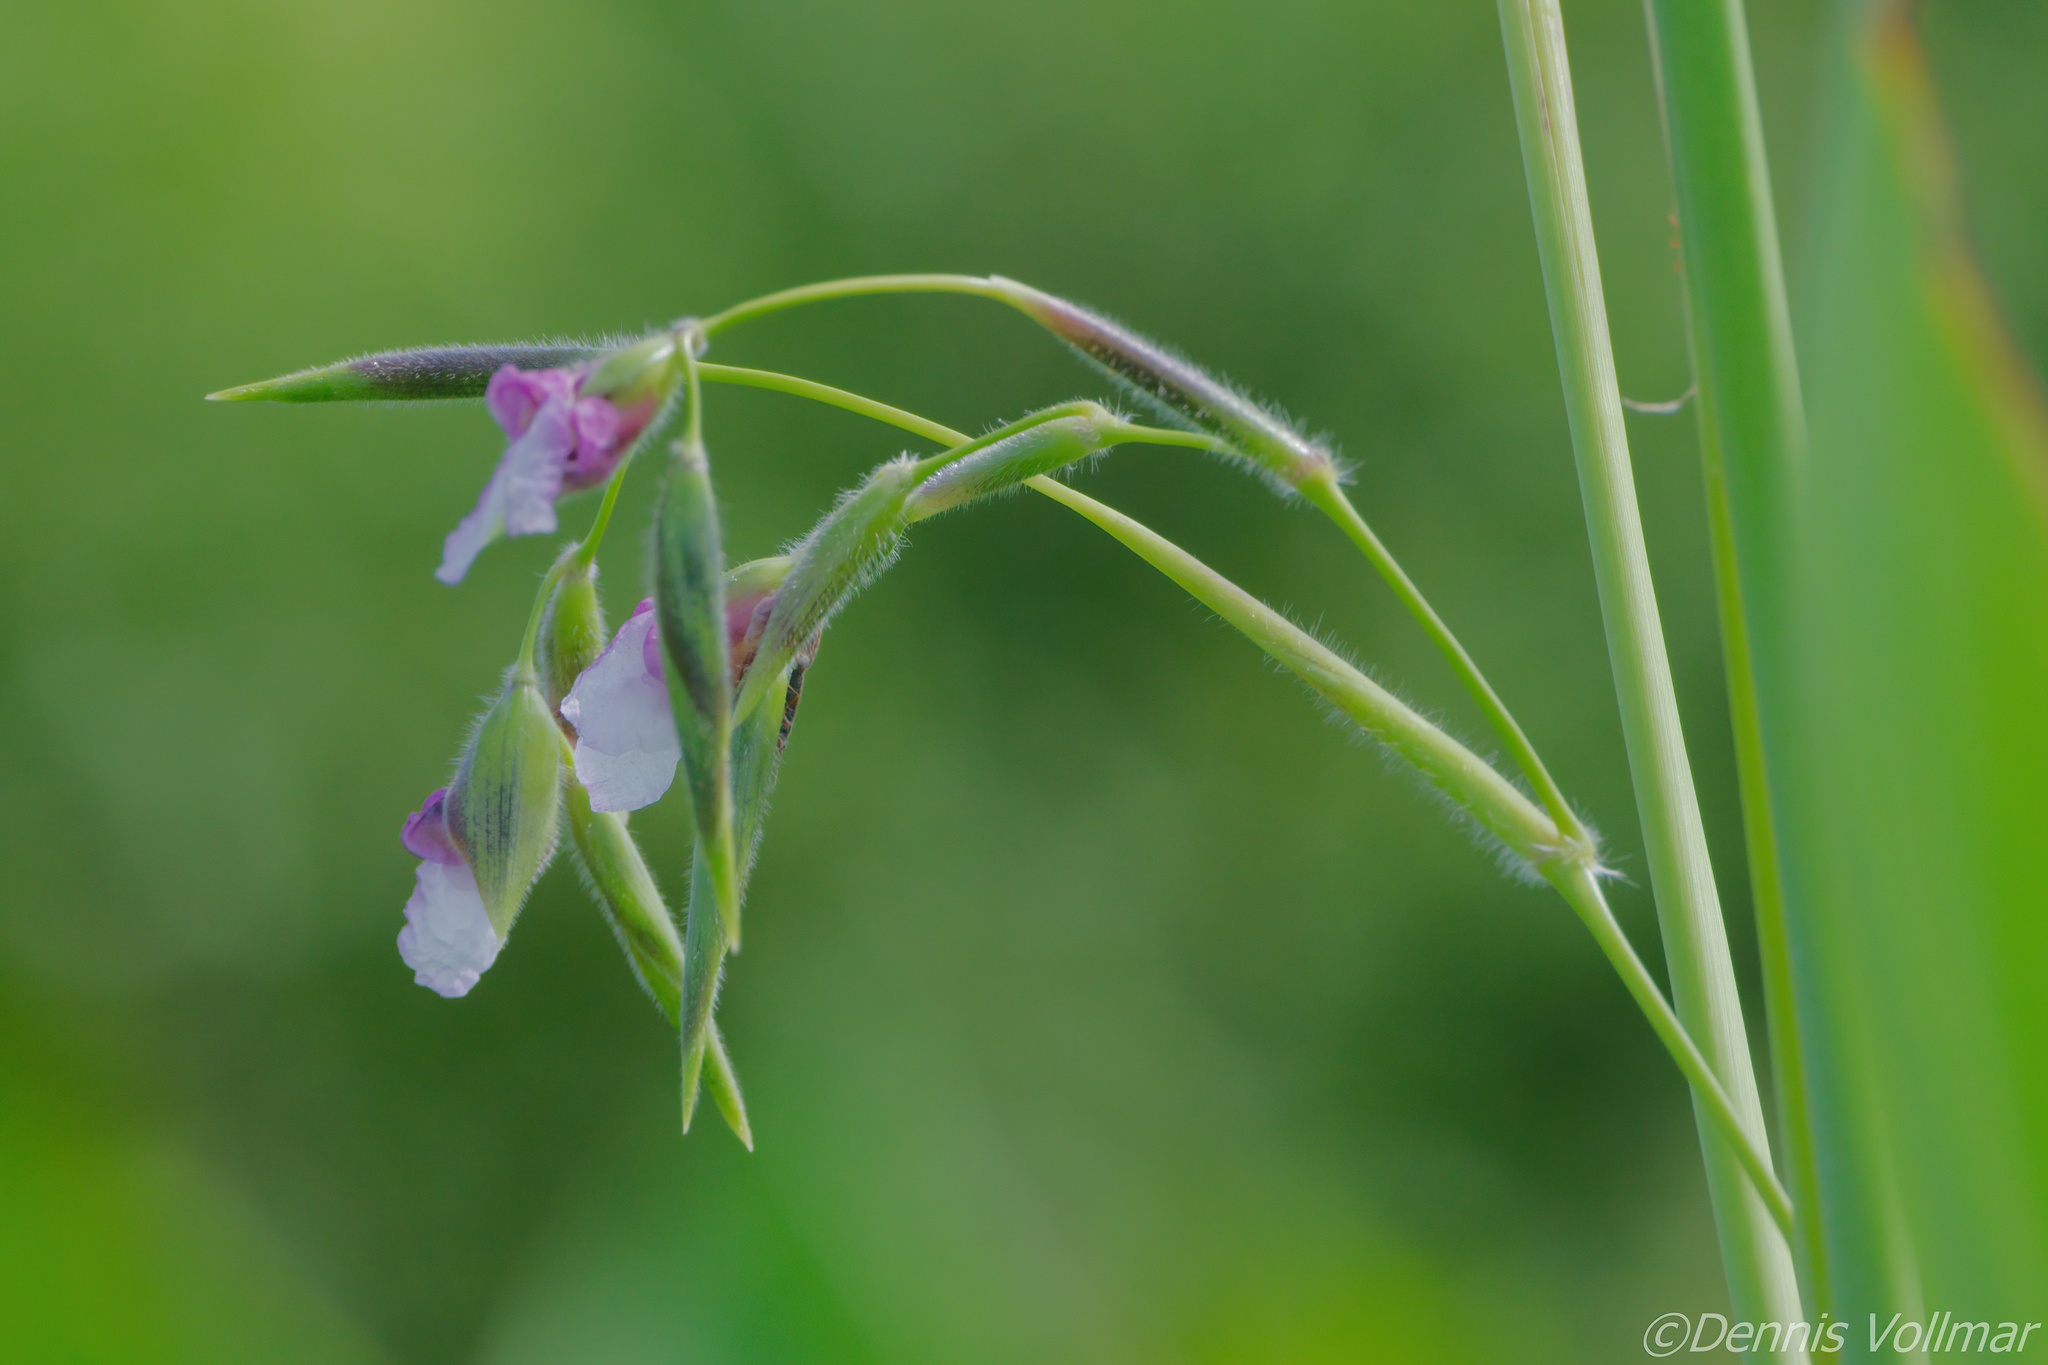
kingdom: Plantae
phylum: Tracheophyta
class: Liliopsida
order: Zingiberales
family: Marantaceae
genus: Thalia
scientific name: Thalia geniculata
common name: Arrowroot
